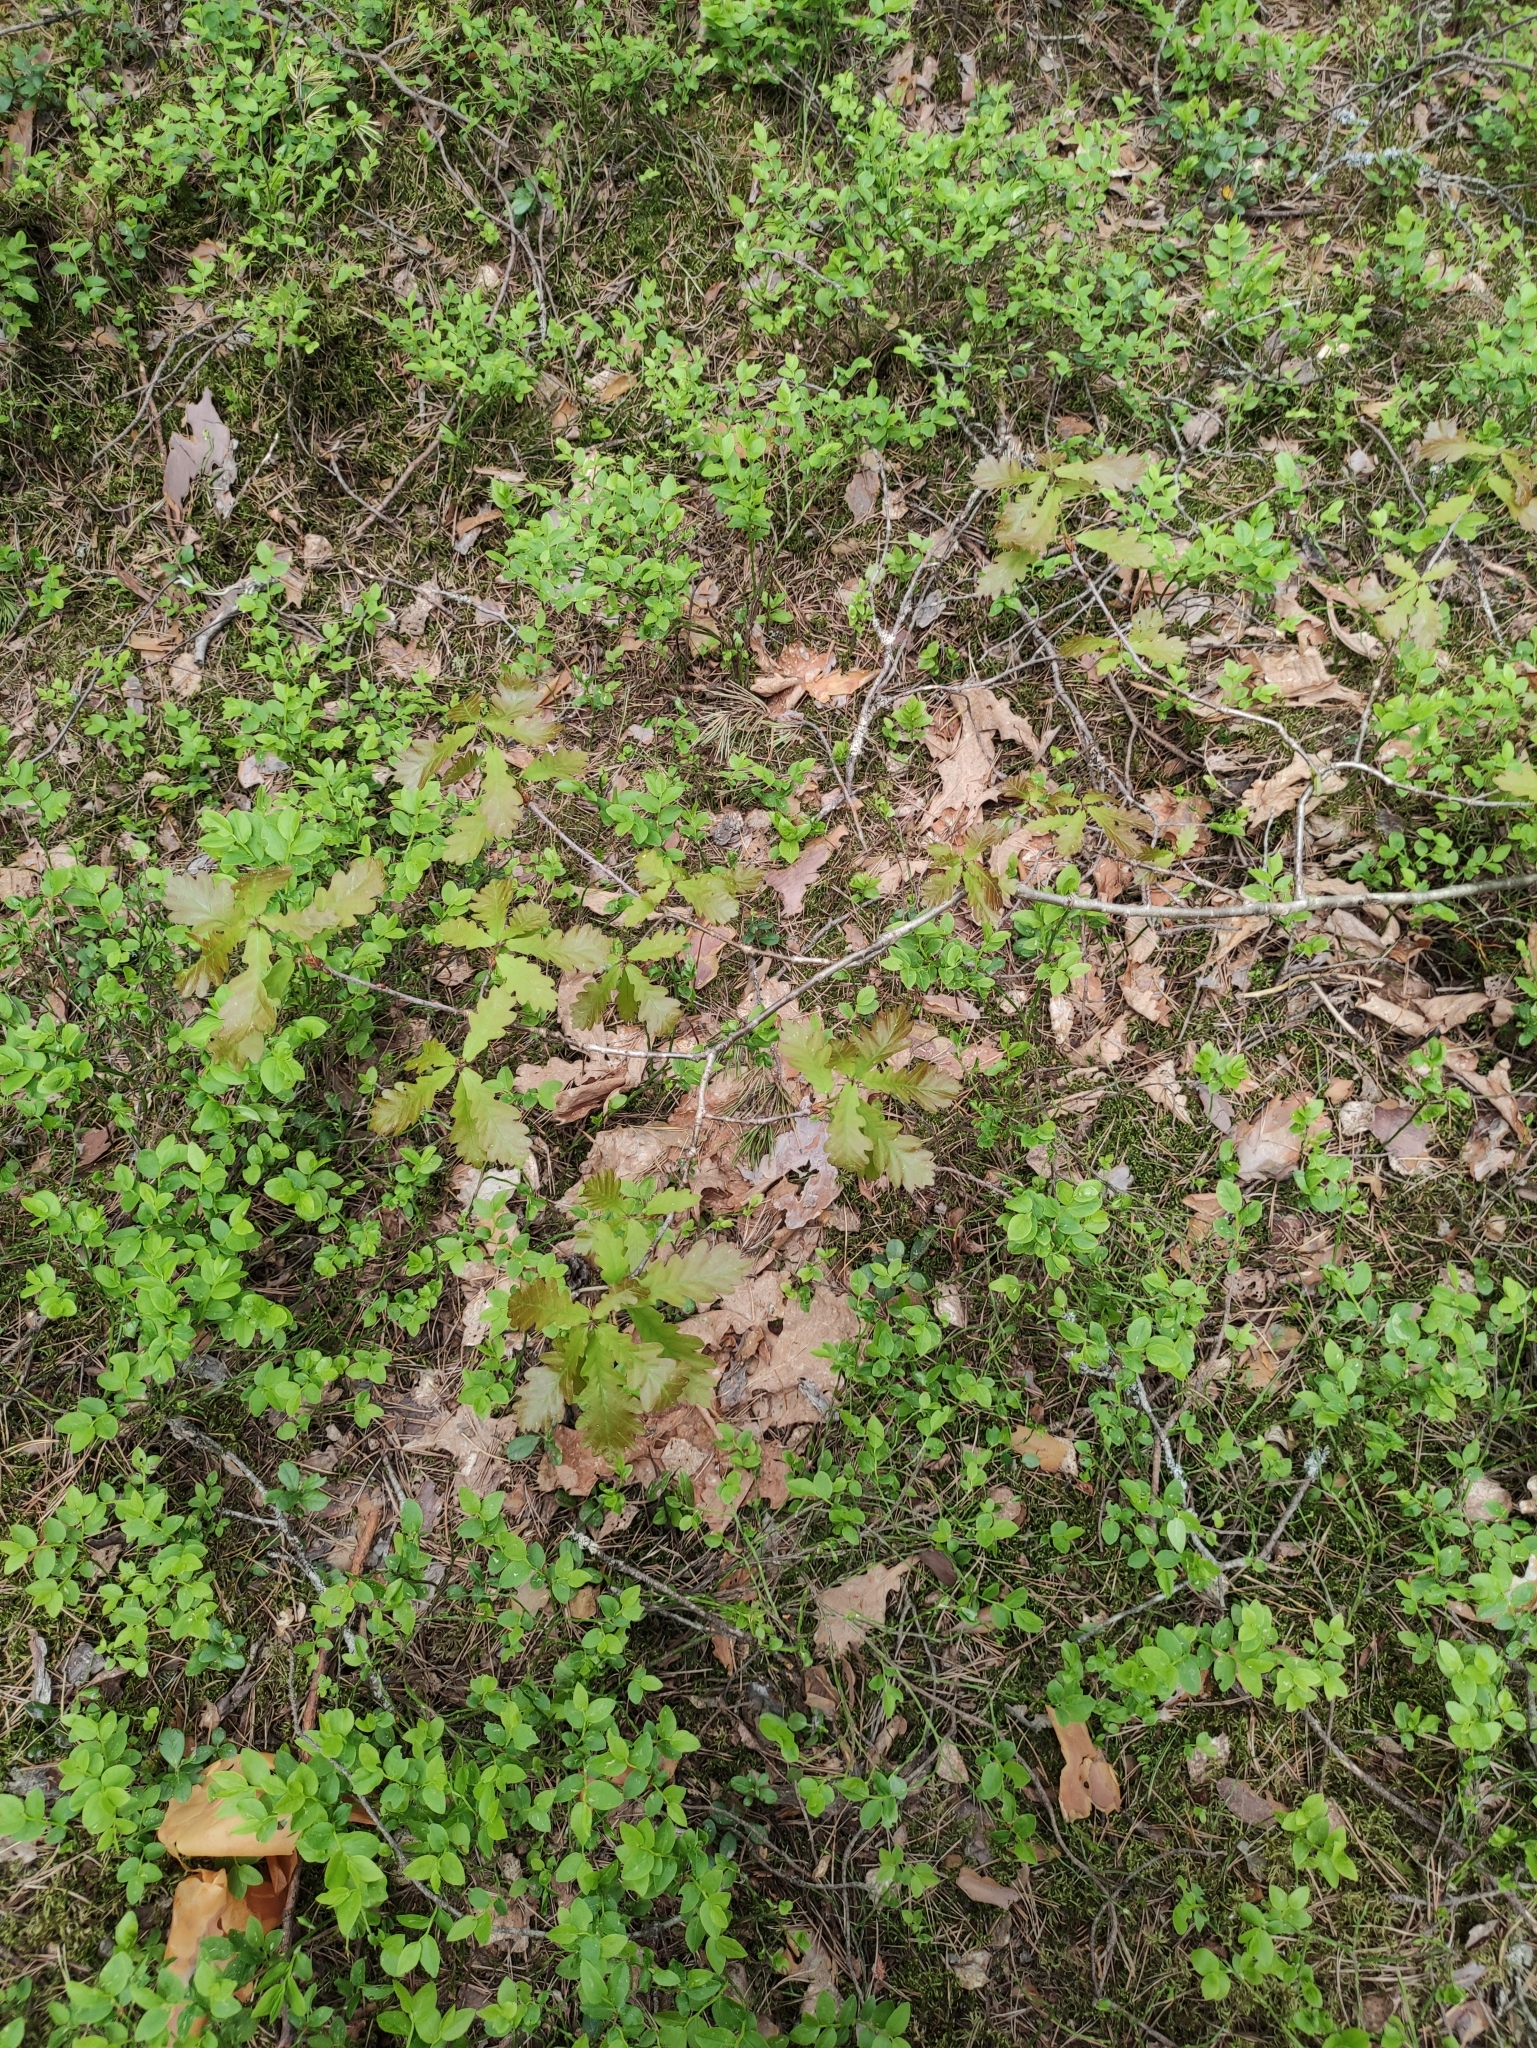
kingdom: Plantae
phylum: Tracheophyta
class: Magnoliopsida
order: Fagales
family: Fagaceae
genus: Quercus
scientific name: Quercus robur
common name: Pedunculate oak
